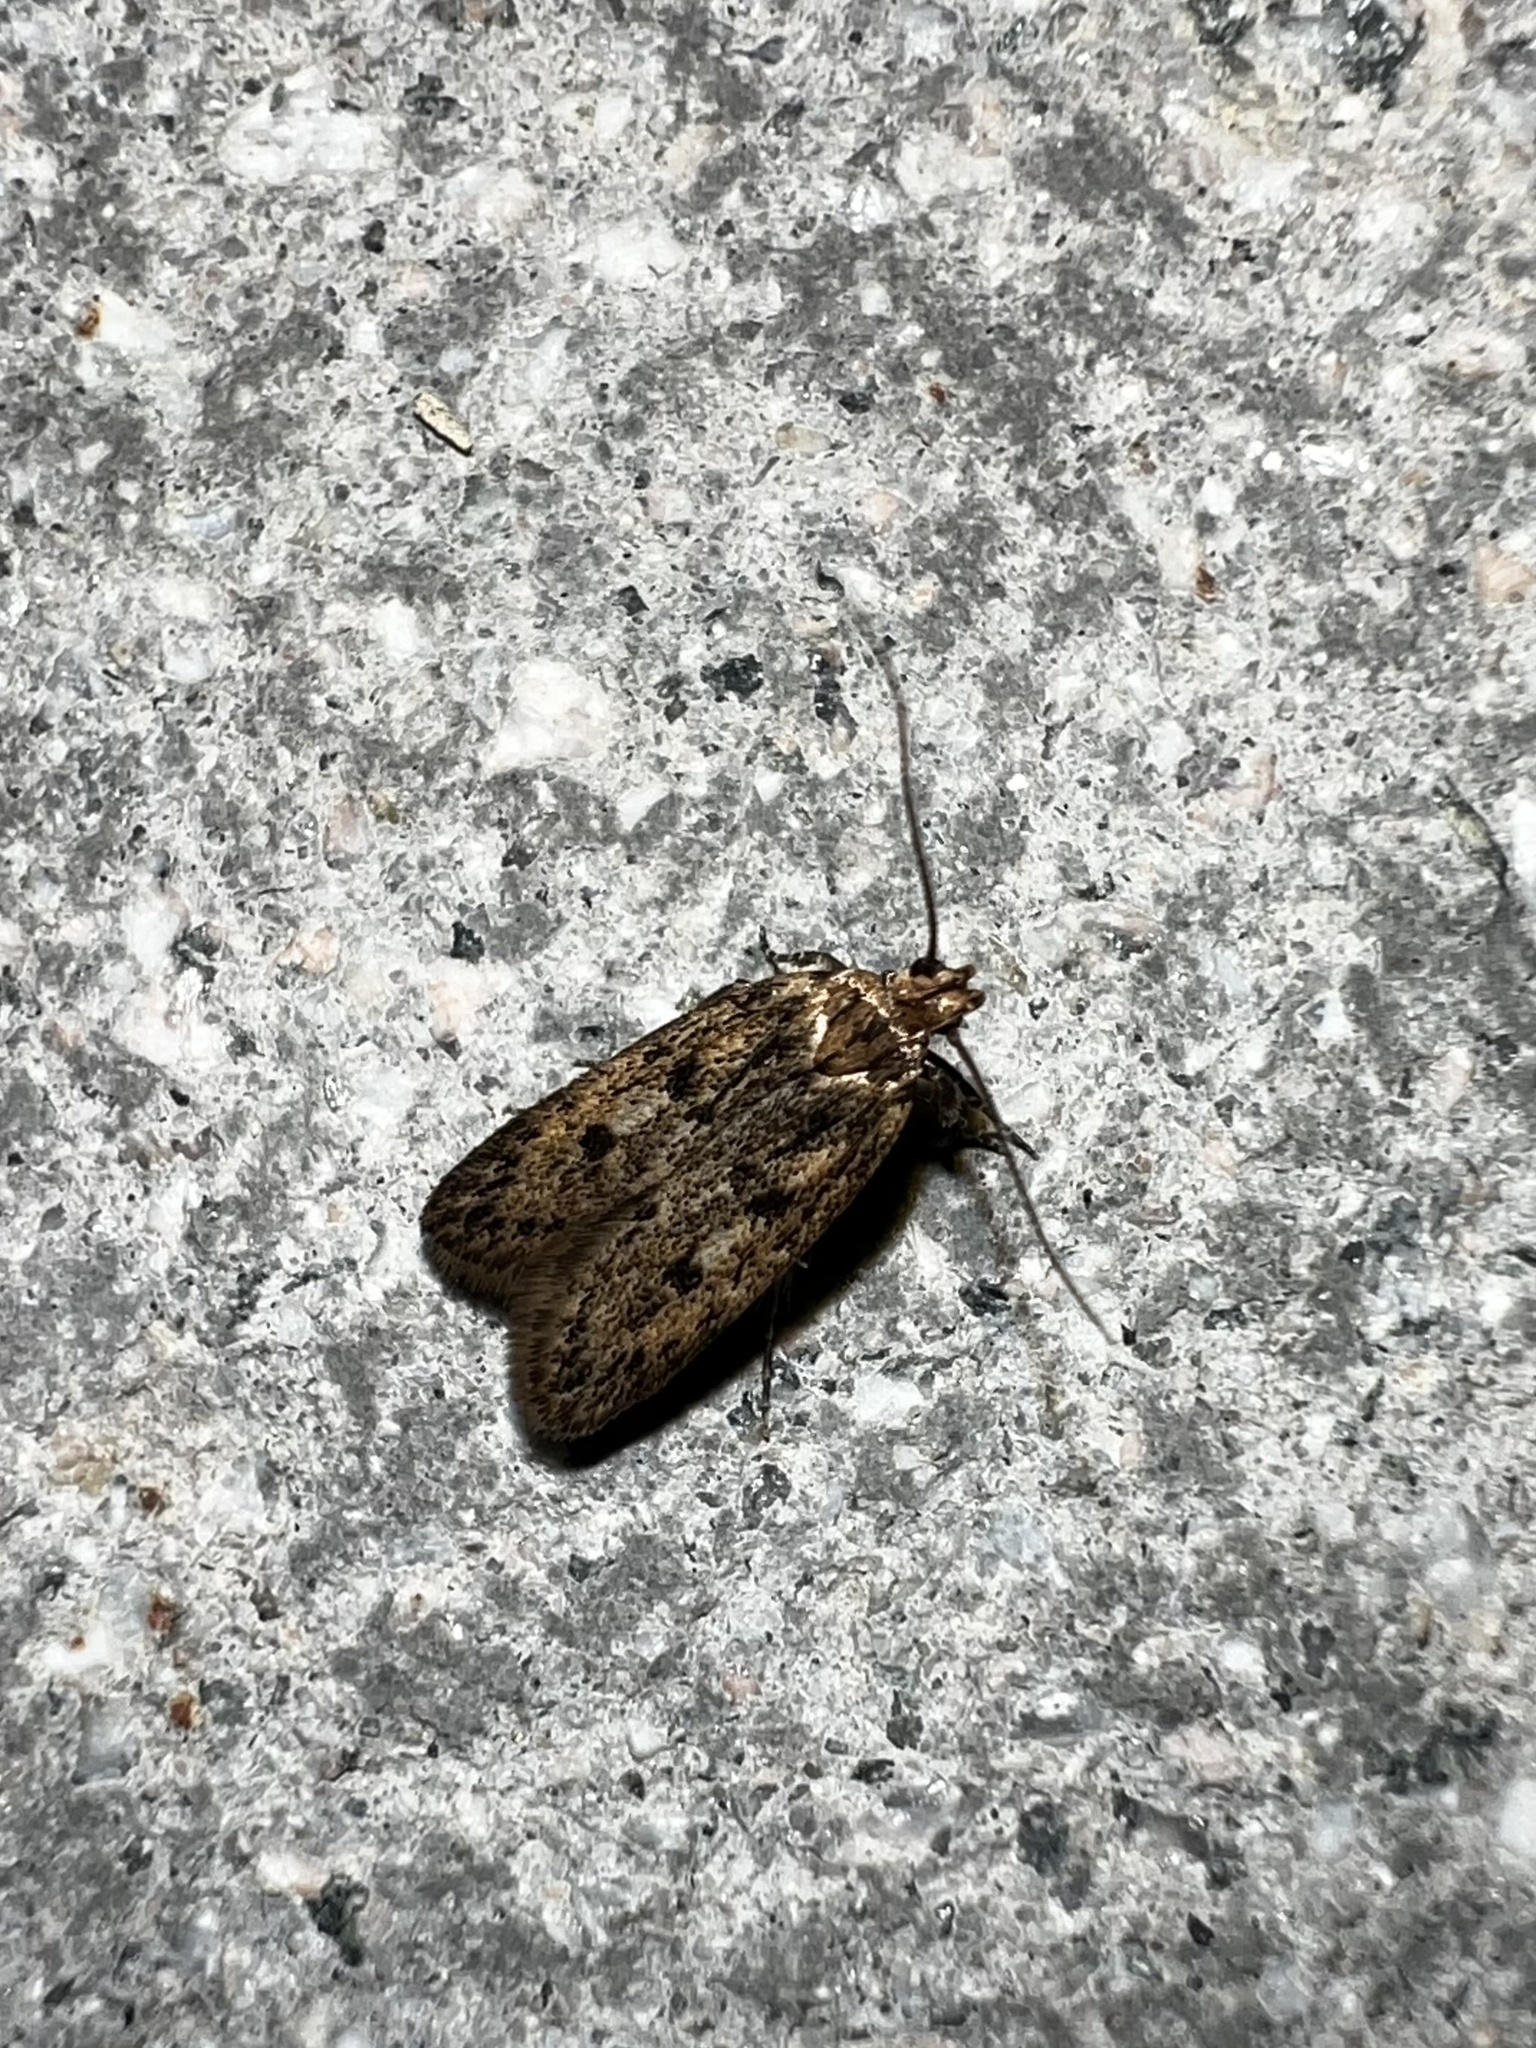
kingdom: Animalia
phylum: Arthropoda
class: Insecta
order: Lepidoptera
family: Oecophoridae
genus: Hofmannophila
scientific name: Hofmannophila pseudospretella
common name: Brown house moth
